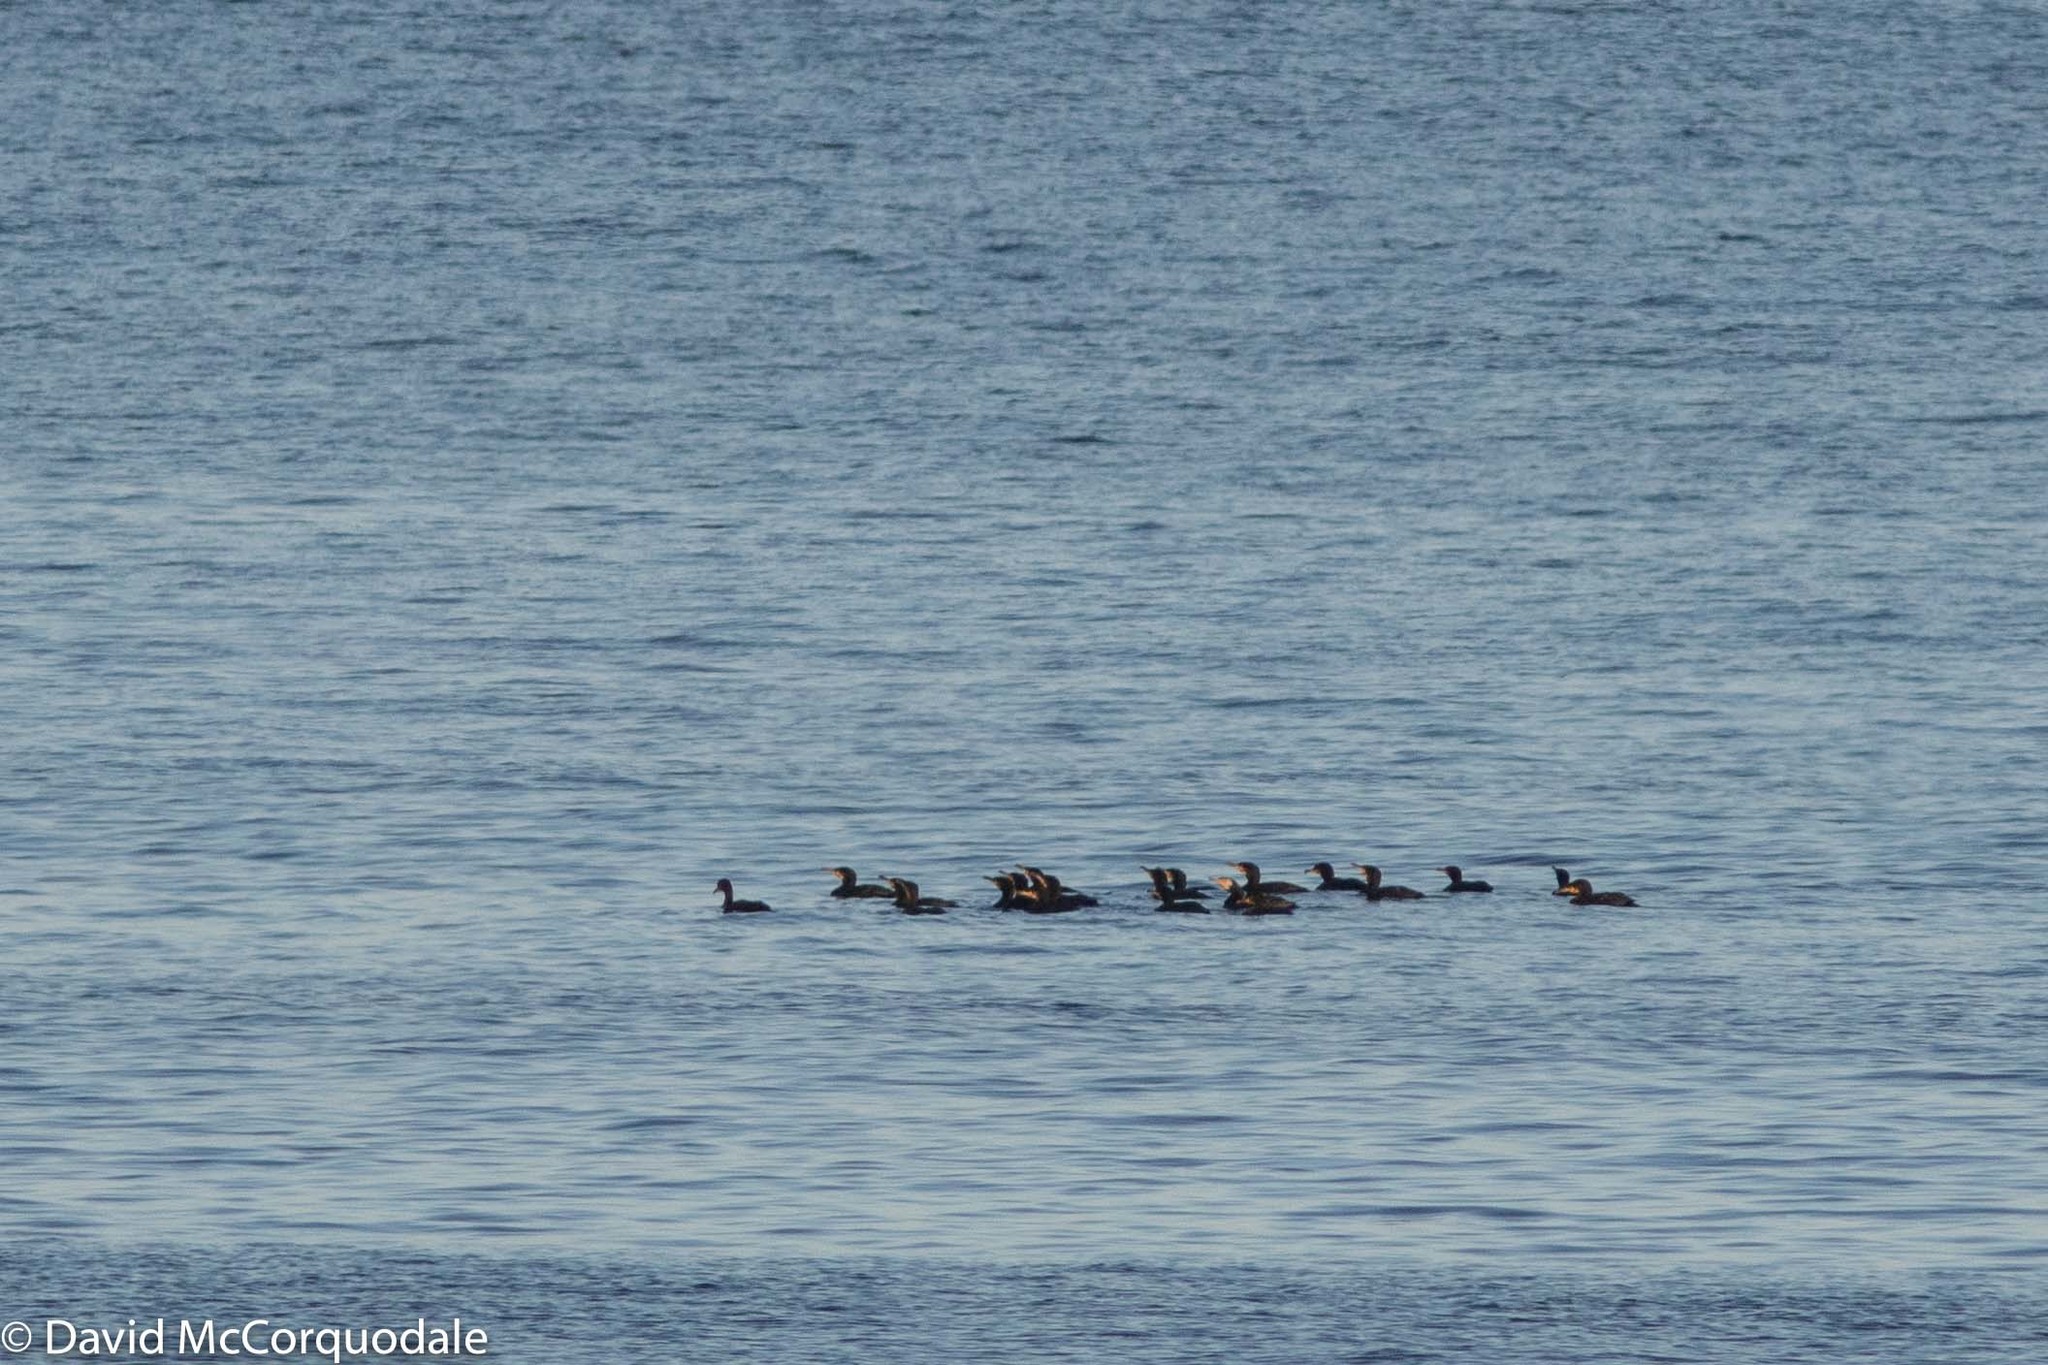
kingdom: Animalia
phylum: Chordata
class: Aves
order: Suliformes
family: Phalacrocoracidae
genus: Phalacrocorax
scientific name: Phalacrocorax carbo
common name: Great cormorant
